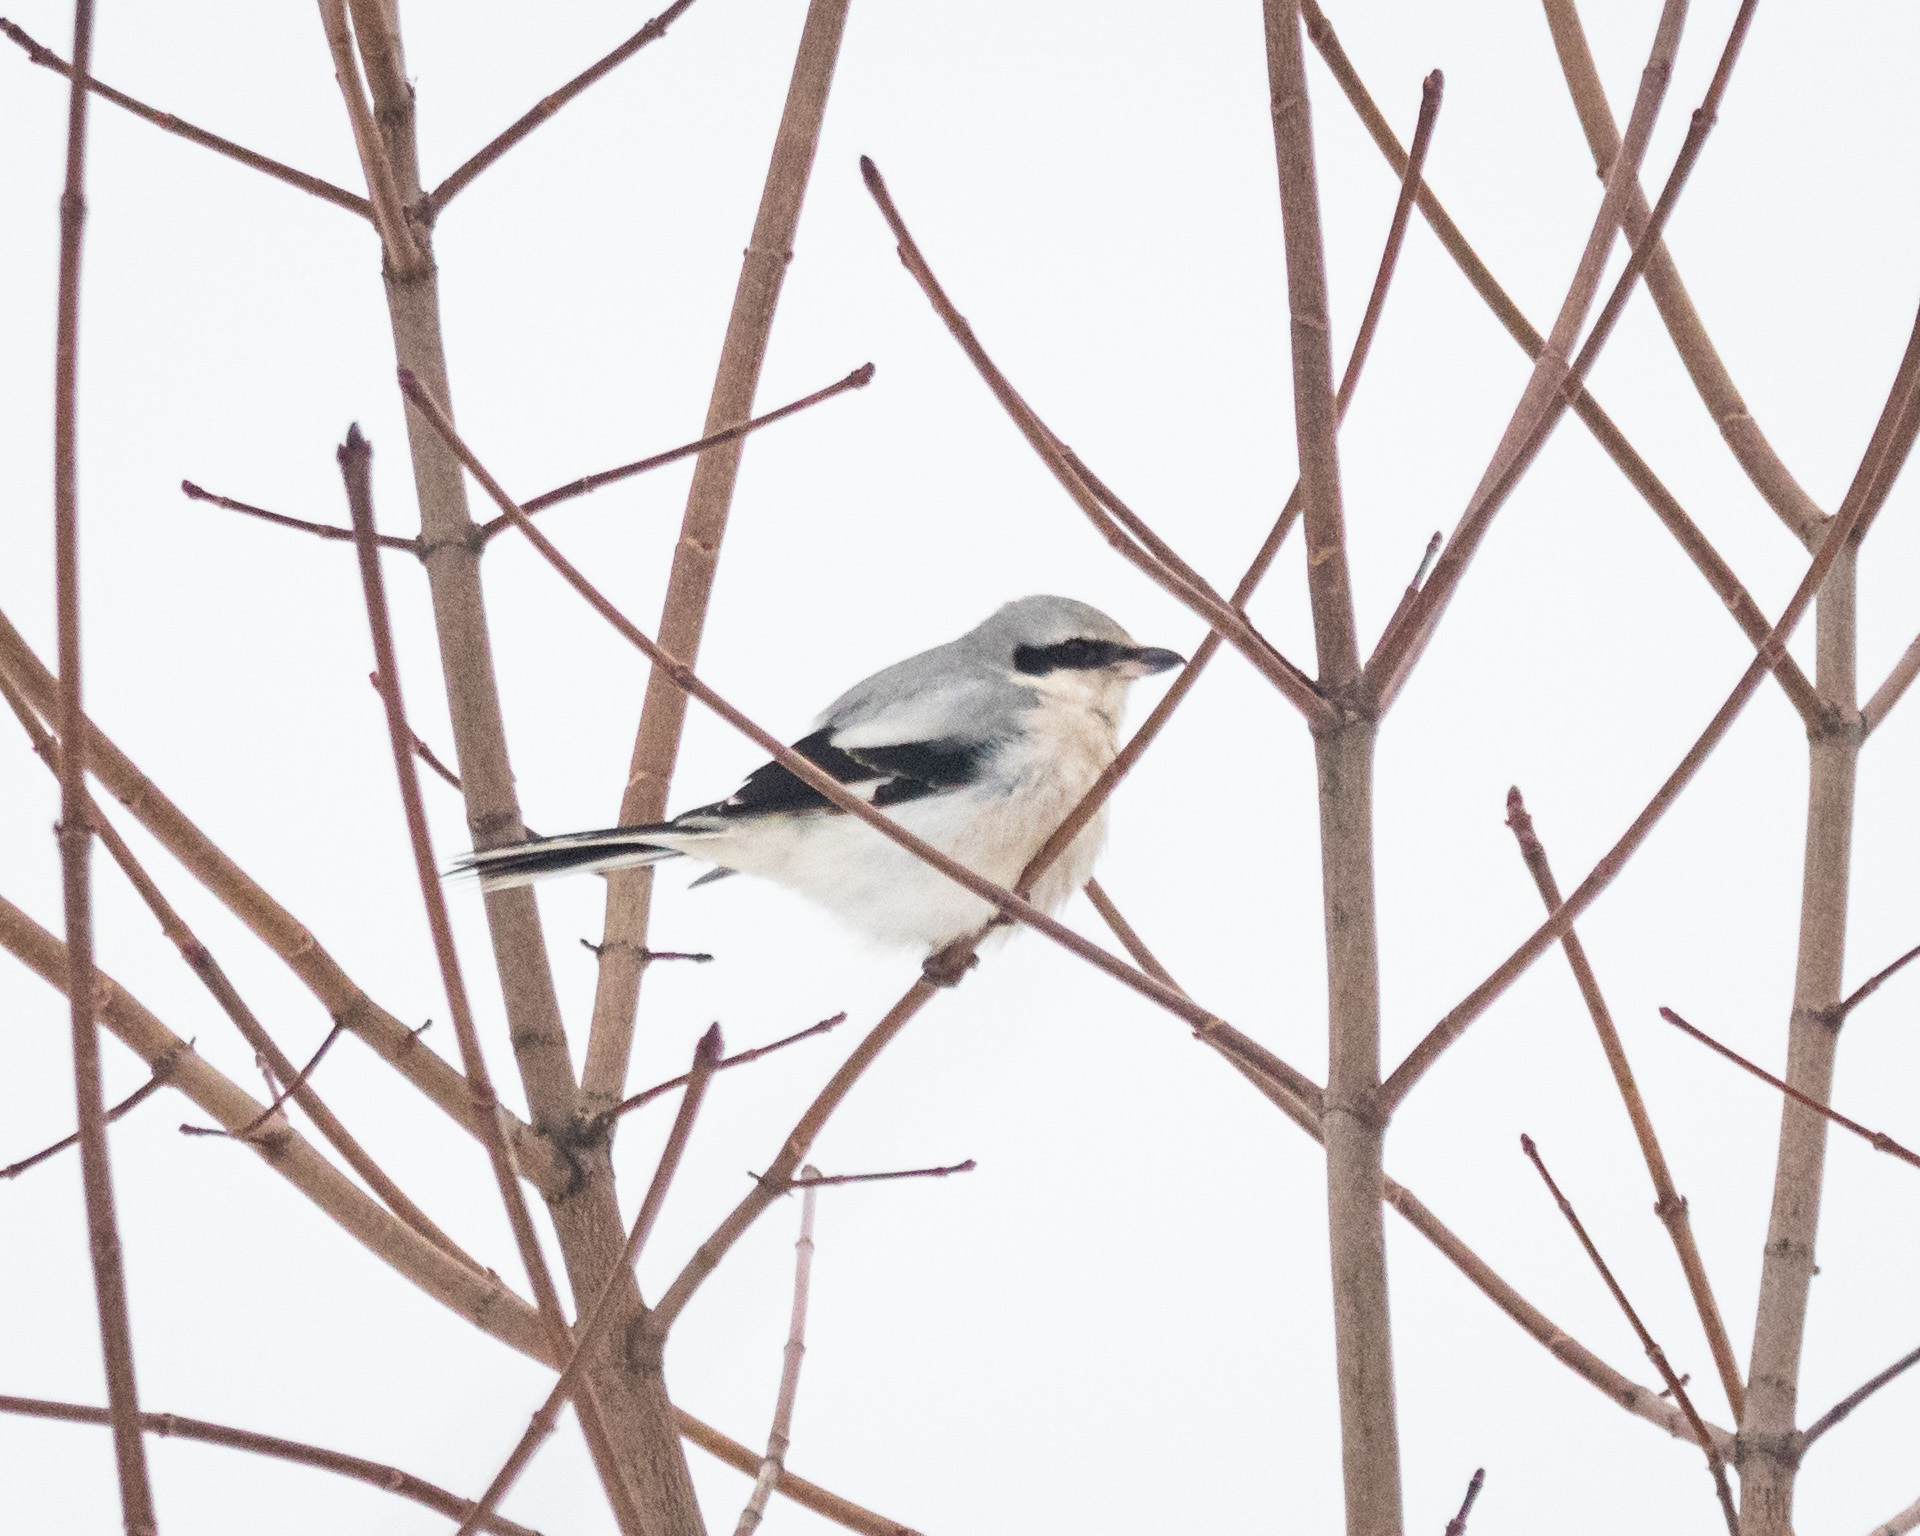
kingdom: Animalia
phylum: Chordata
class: Aves
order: Passeriformes
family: Laniidae
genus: Lanius
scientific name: Lanius excubitor
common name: Great grey shrike
